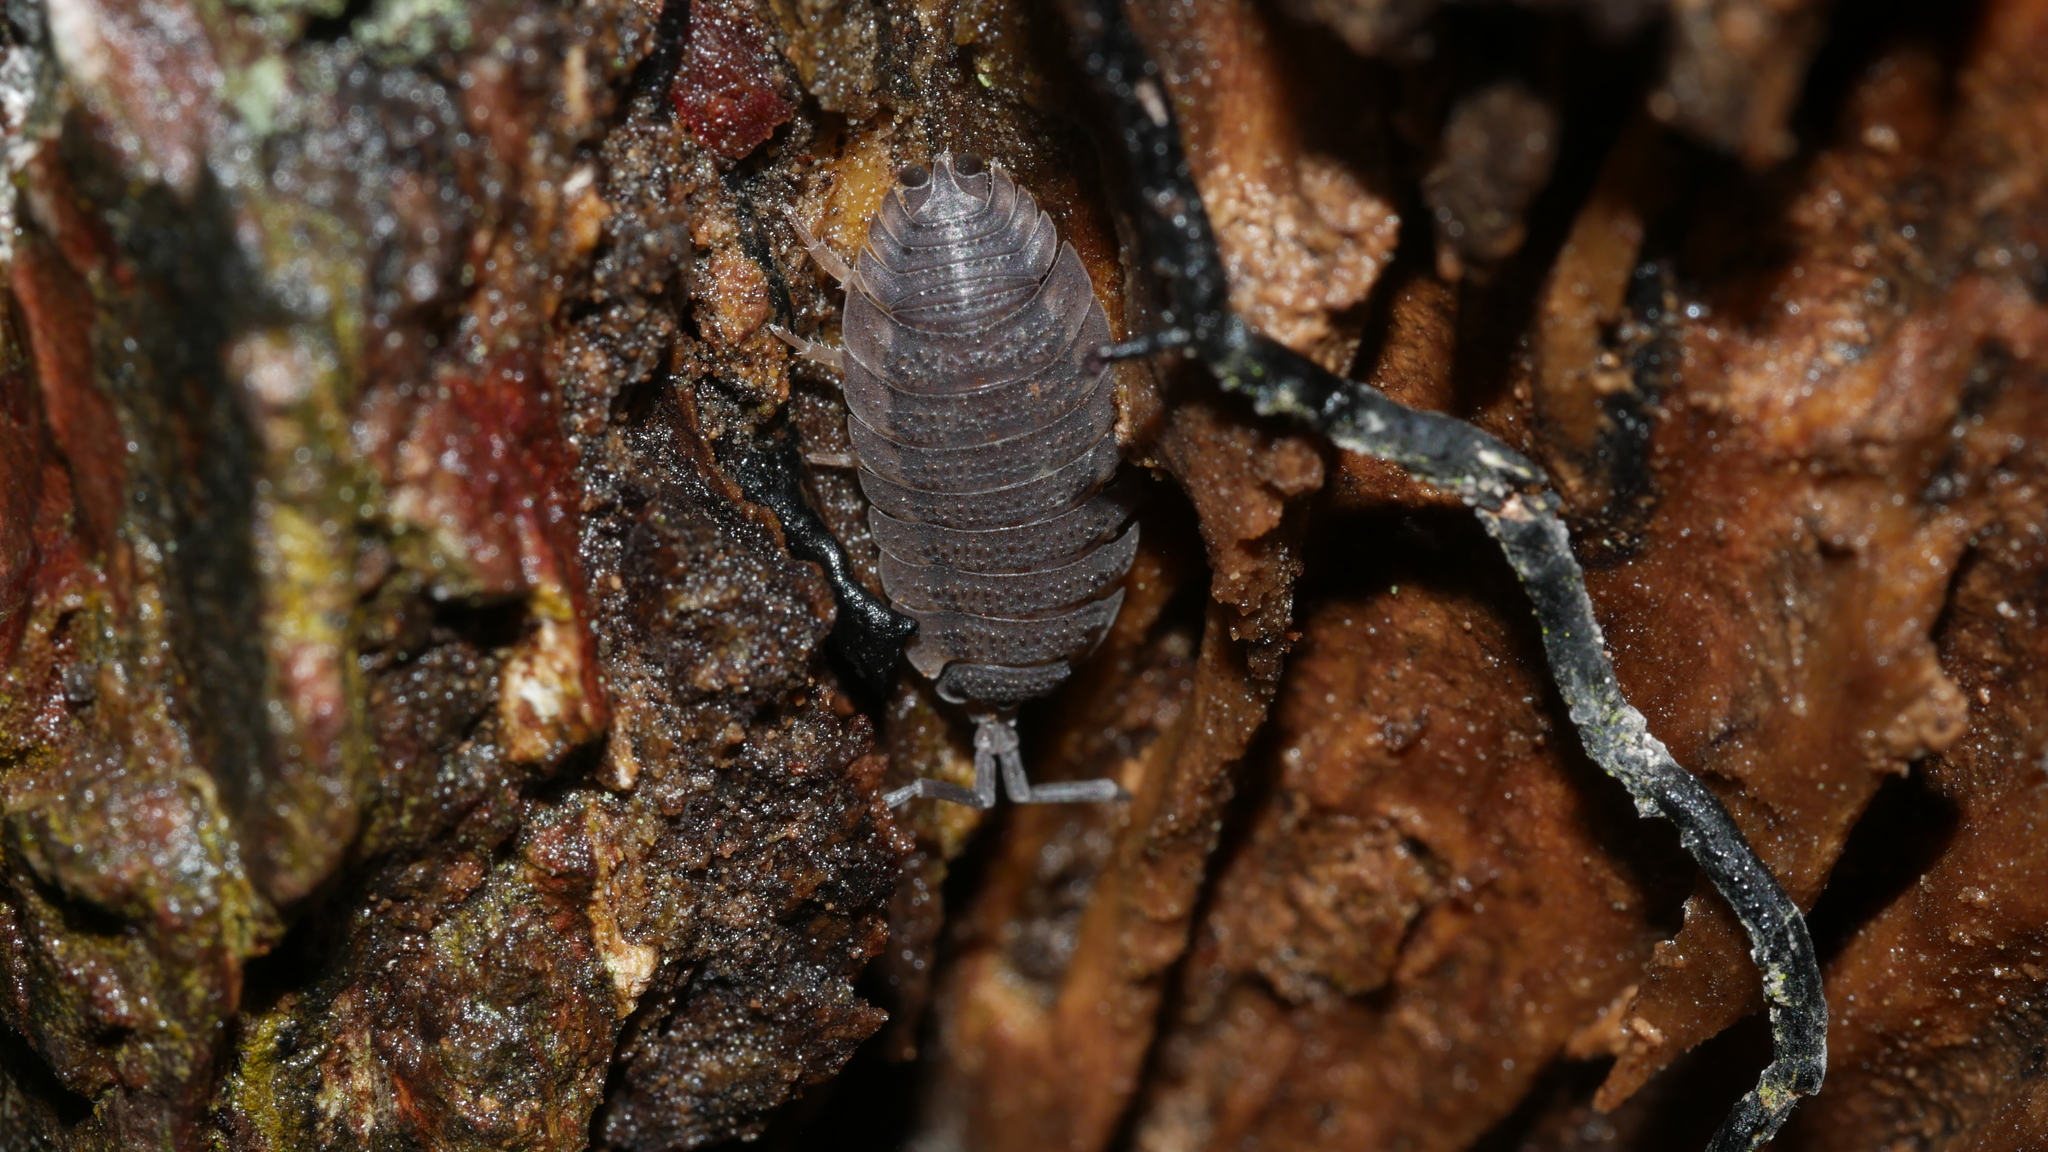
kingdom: Animalia
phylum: Arthropoda
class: Malacostraca
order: Isopoda
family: Porcellionidae
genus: Porcellio
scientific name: Porcellio scaber
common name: Common rough woodlouse
